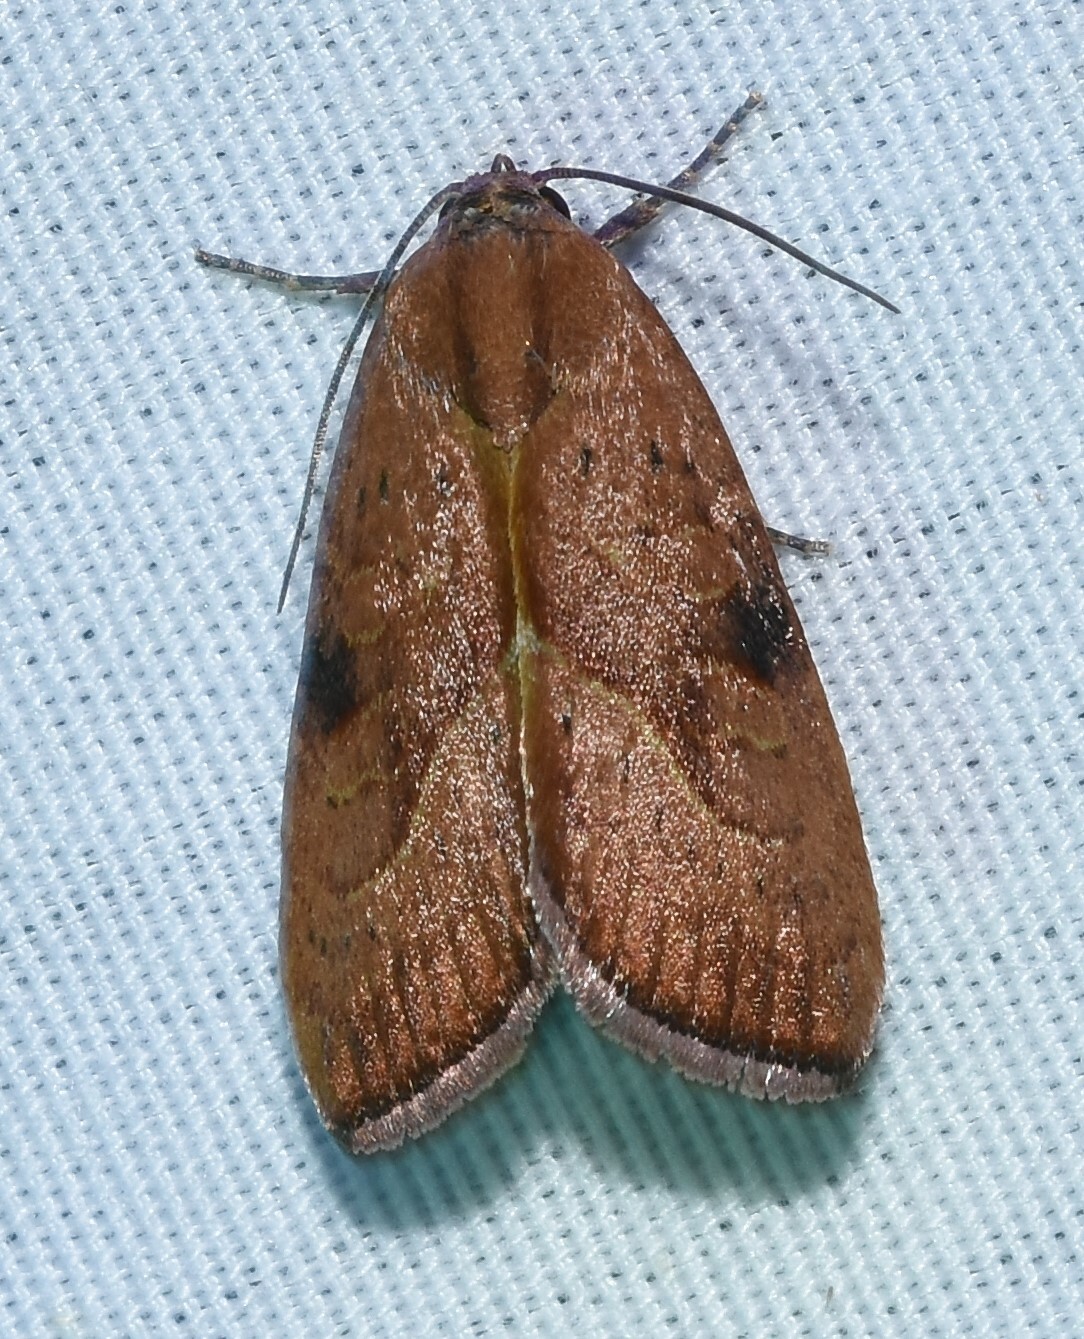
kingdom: Animalia
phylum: Arthropoda
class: Insecta
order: Lepidoptera
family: Noctuidae
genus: Galgula
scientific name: Galgula partita
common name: Wedgeling
